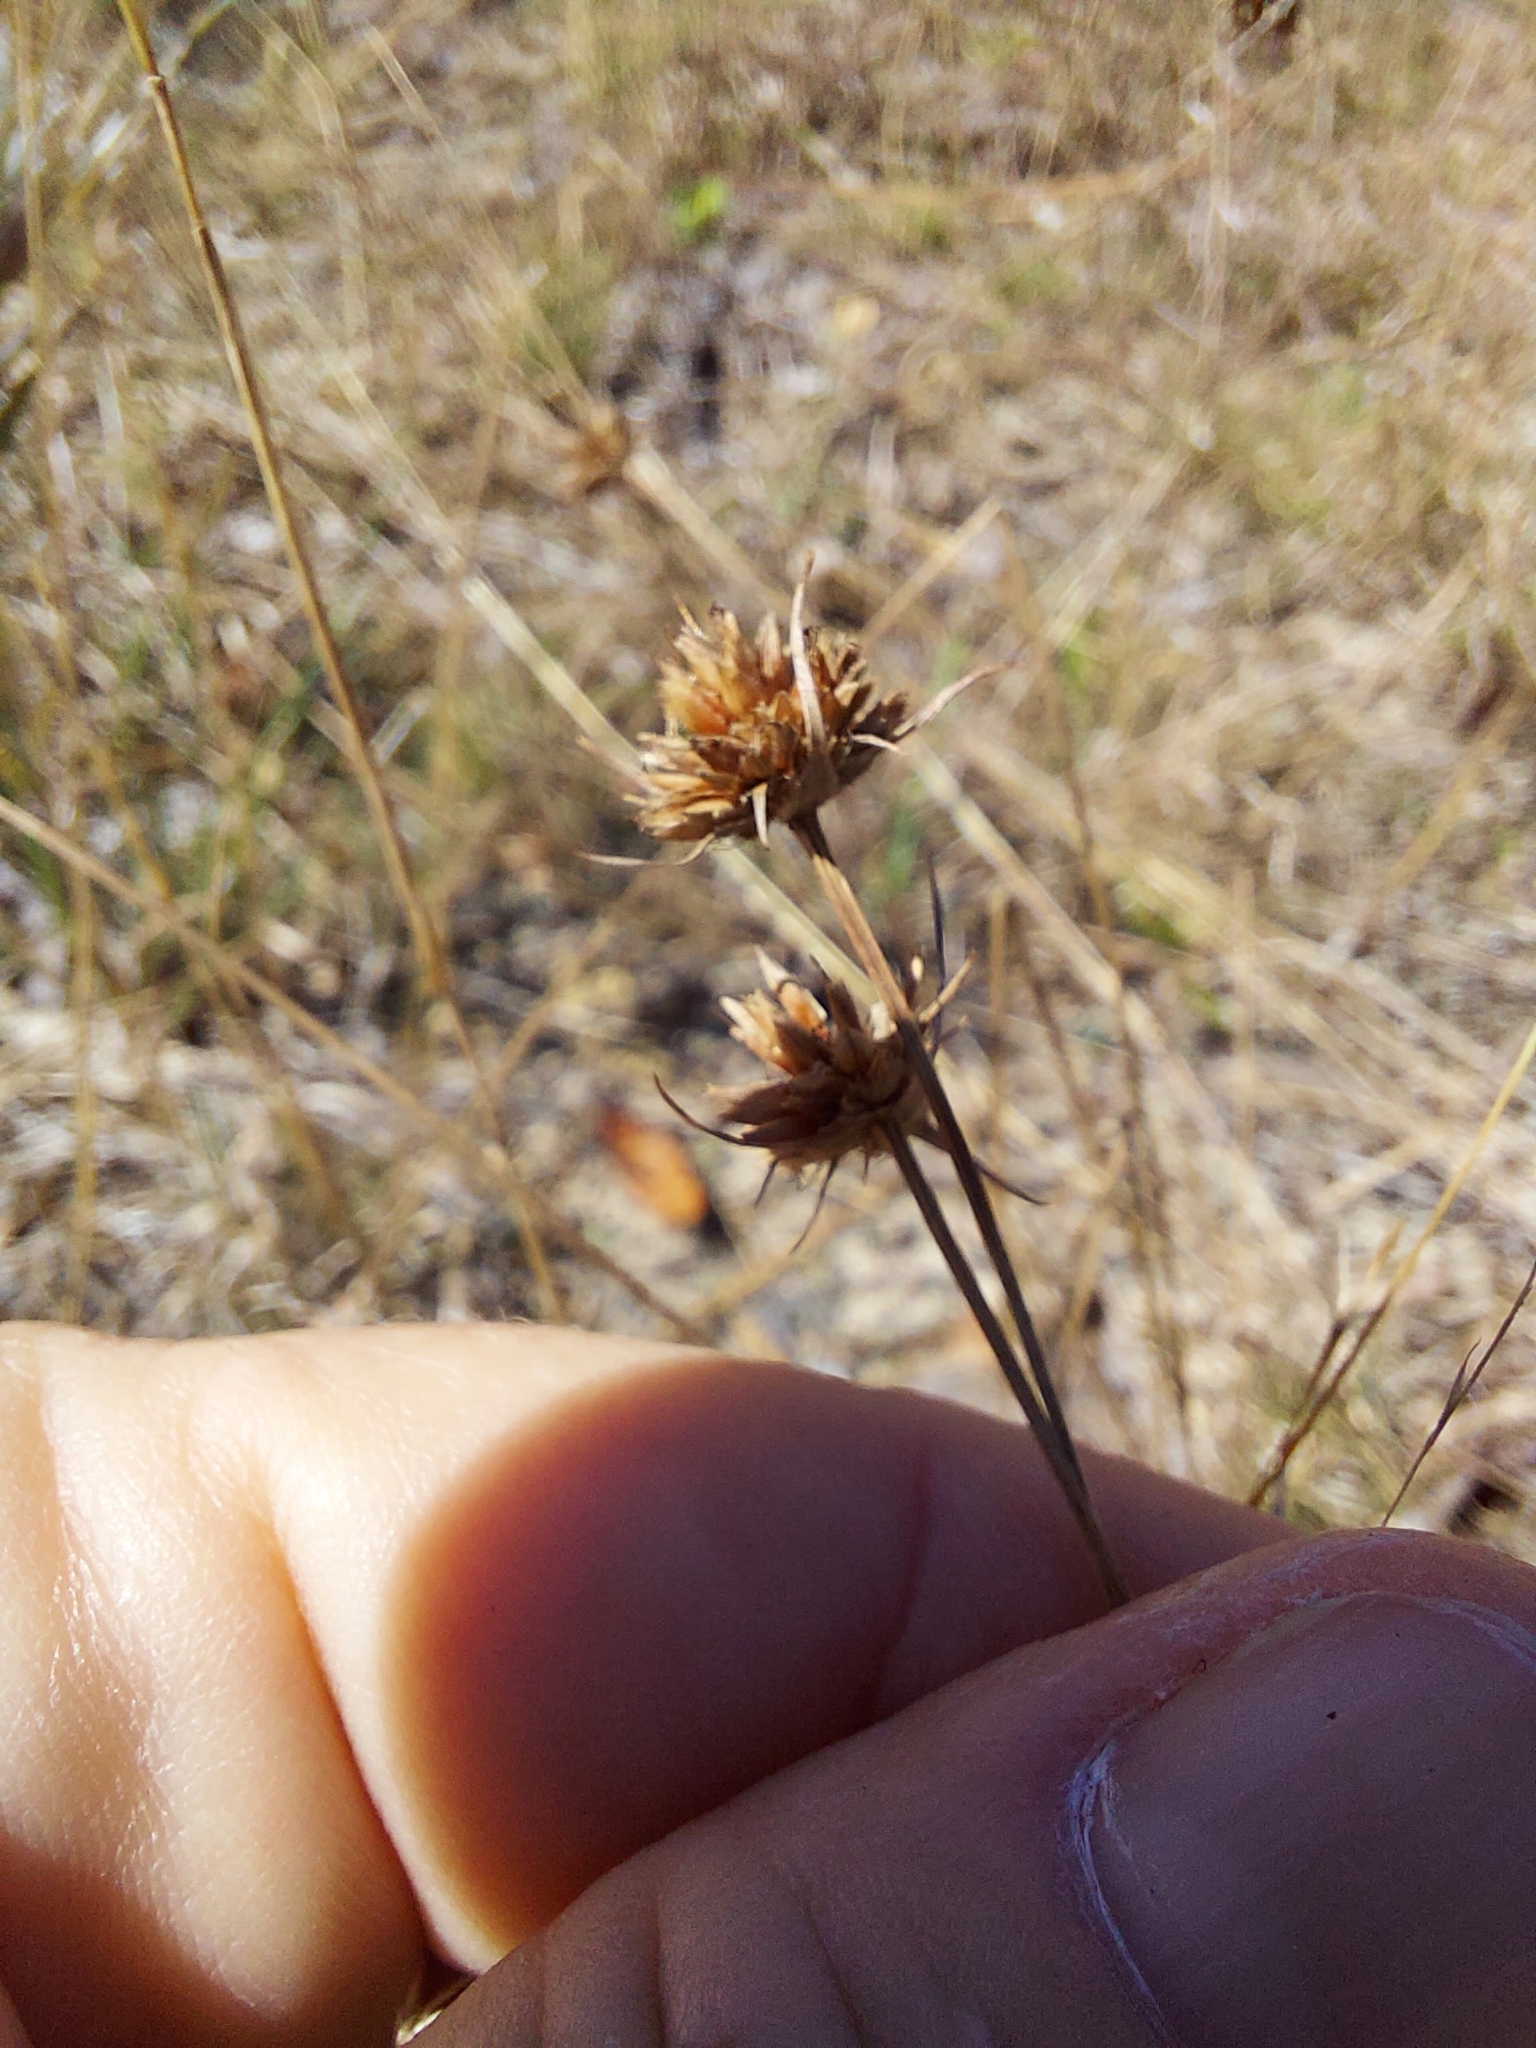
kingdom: Plantae
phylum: Tracheophyta
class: Liliopsida
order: Poales
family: Cyperaceae
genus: Bulbostylis
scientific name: Bulbostylis warei
